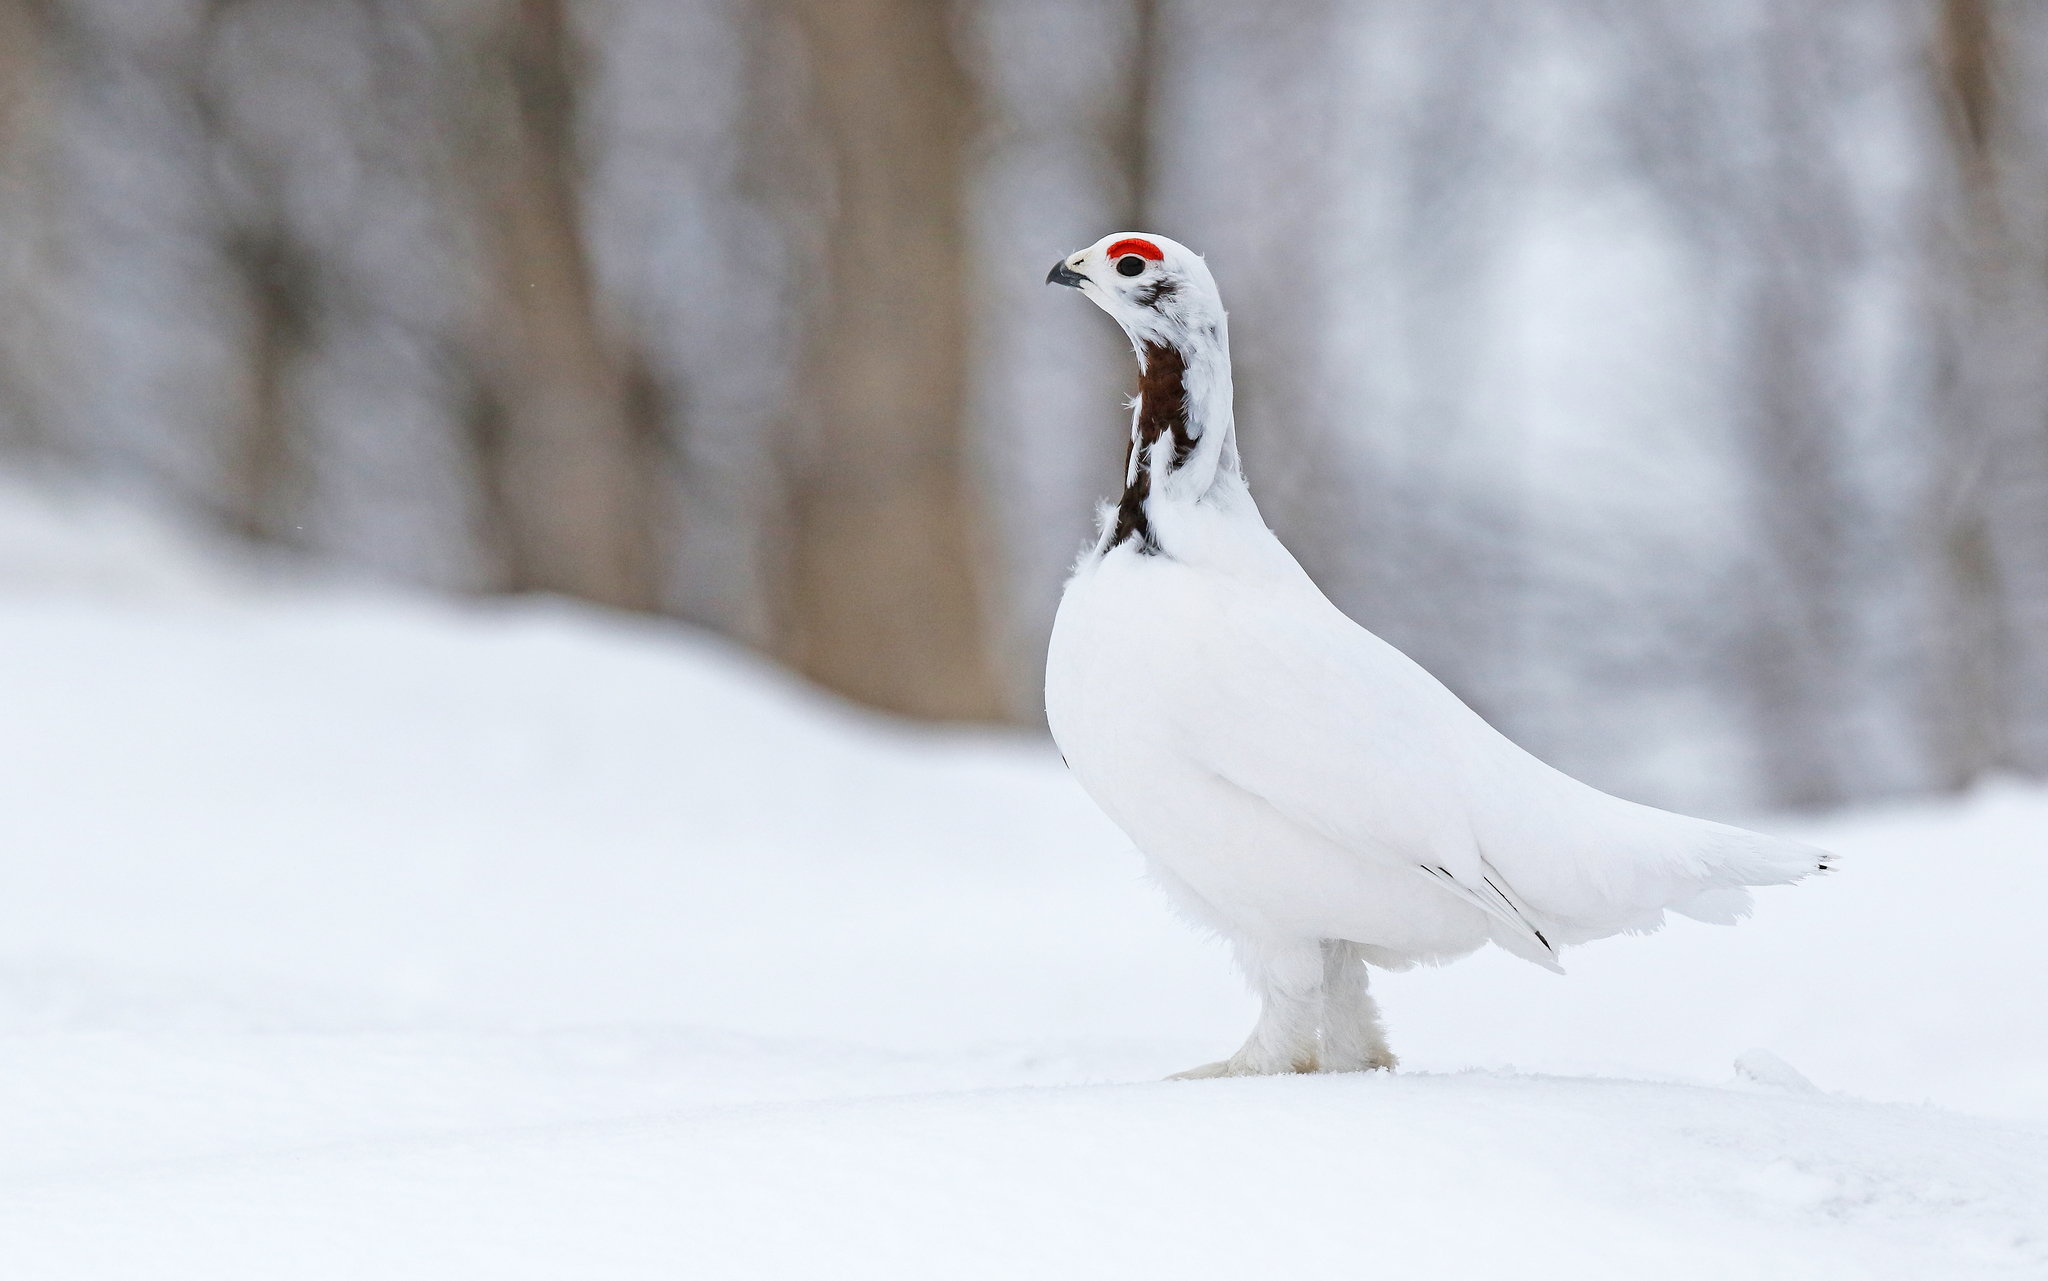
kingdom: Animalia
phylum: Chordata
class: Aves
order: Galliformes
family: Phasianidae
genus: Lagopus
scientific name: Lagopus lagopus
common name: Willow ptarmigan
